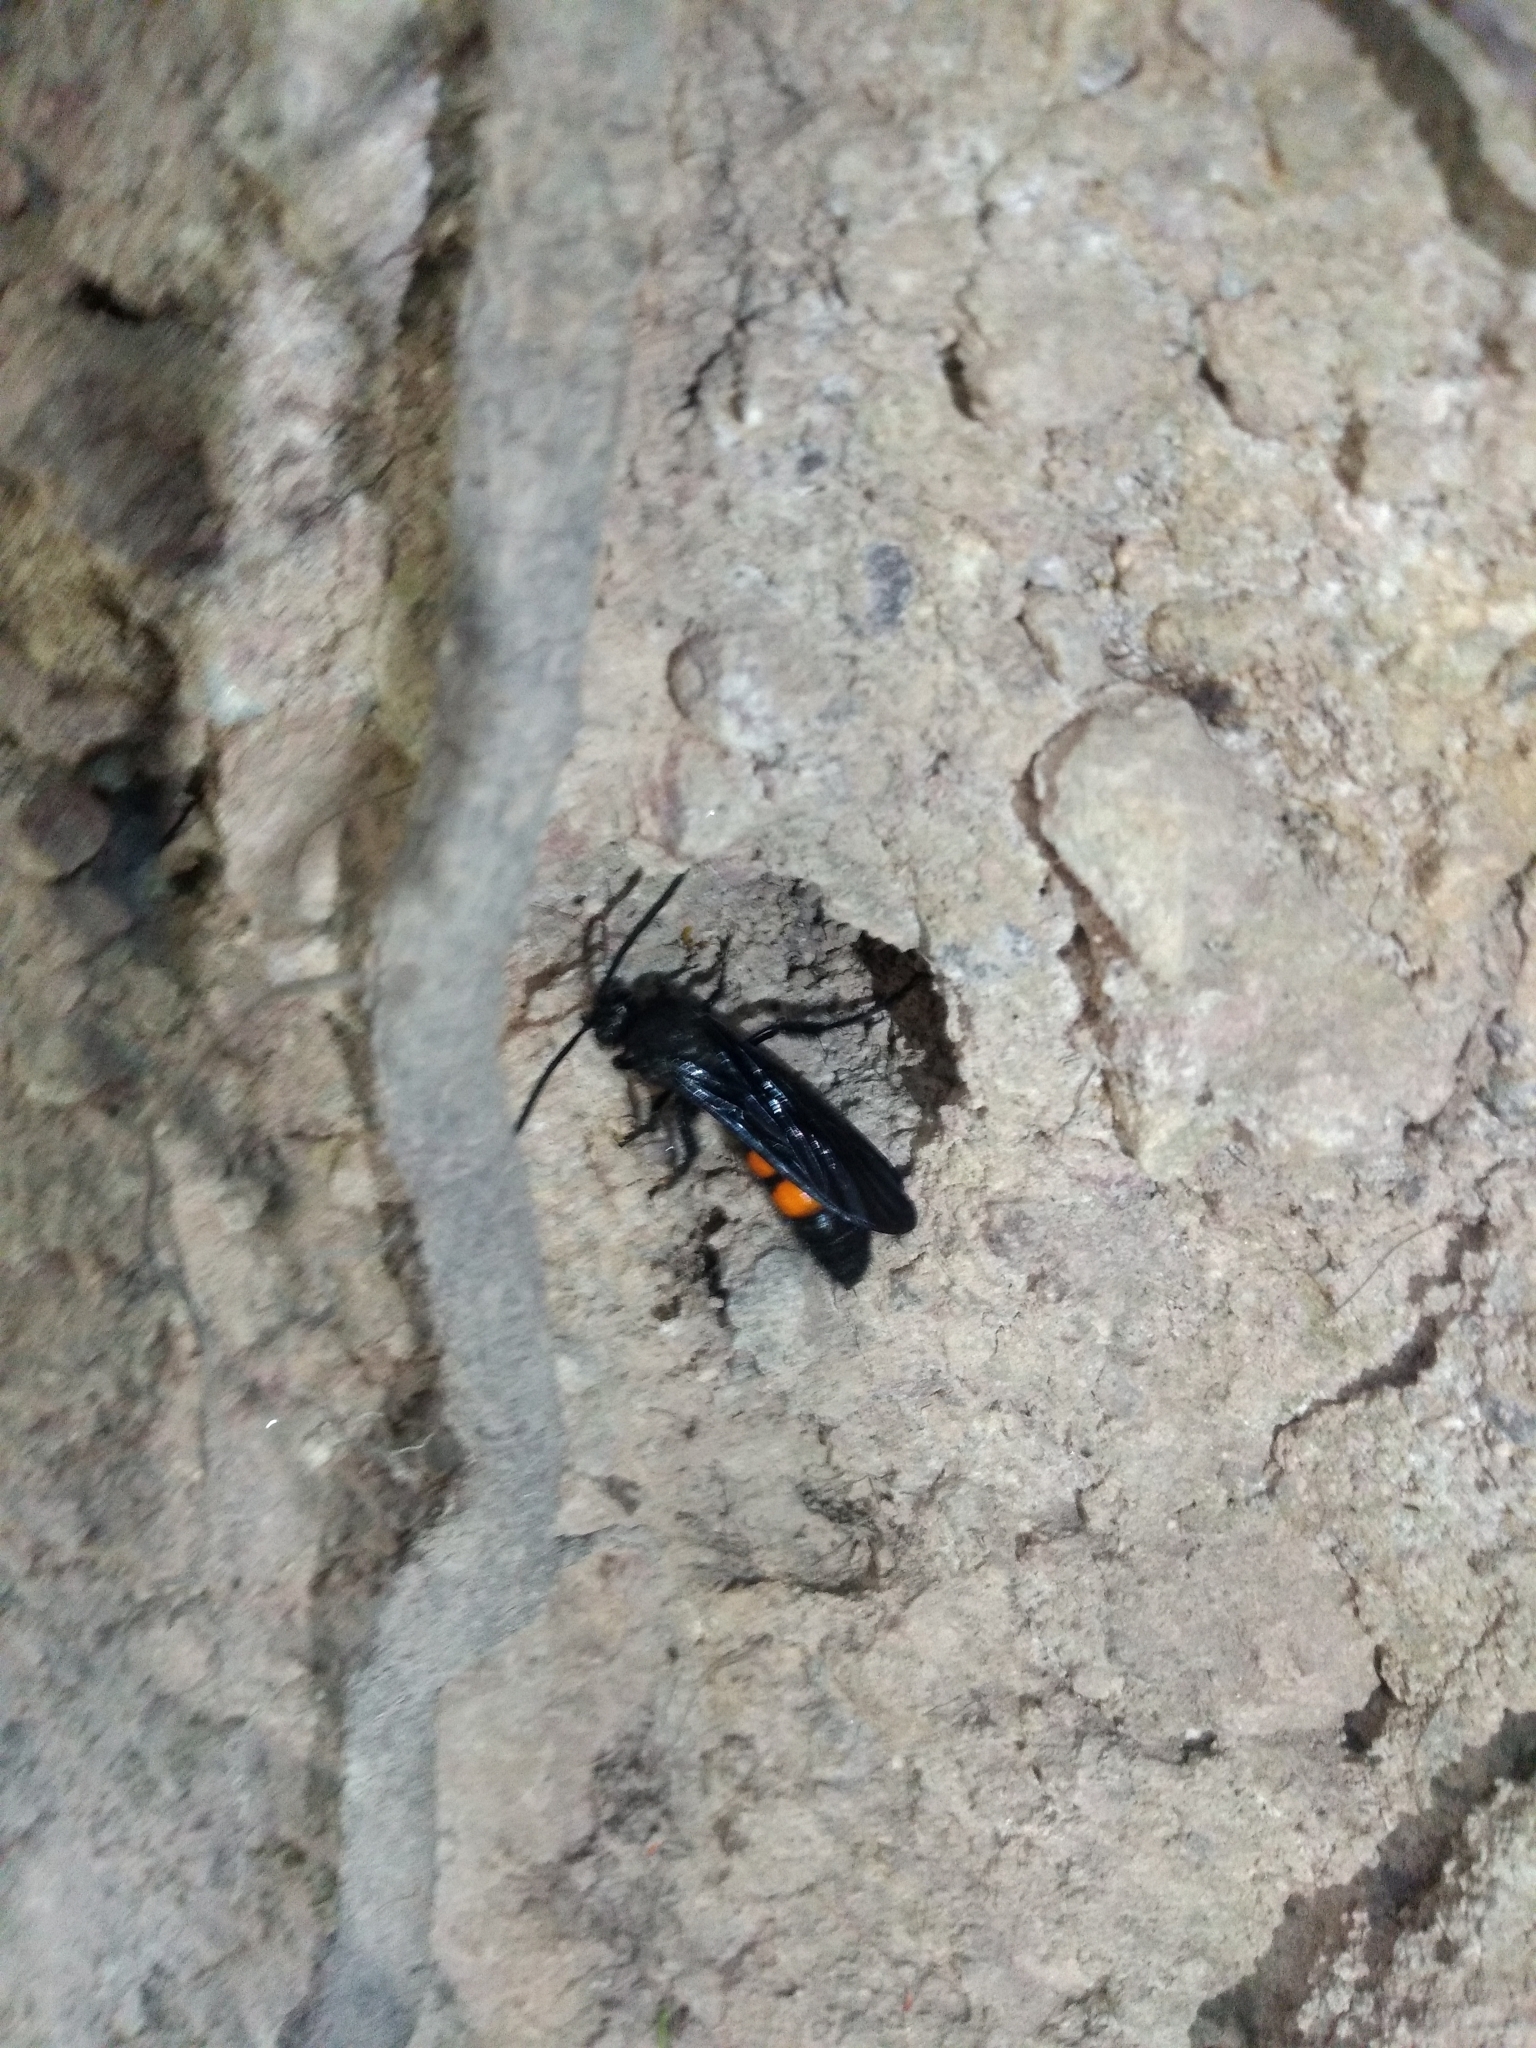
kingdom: Animalia
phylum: Arthropoda
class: Insecta
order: Hymenoptera
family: Scoliidae
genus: Pygodasis
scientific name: Pygodasis ephippium
